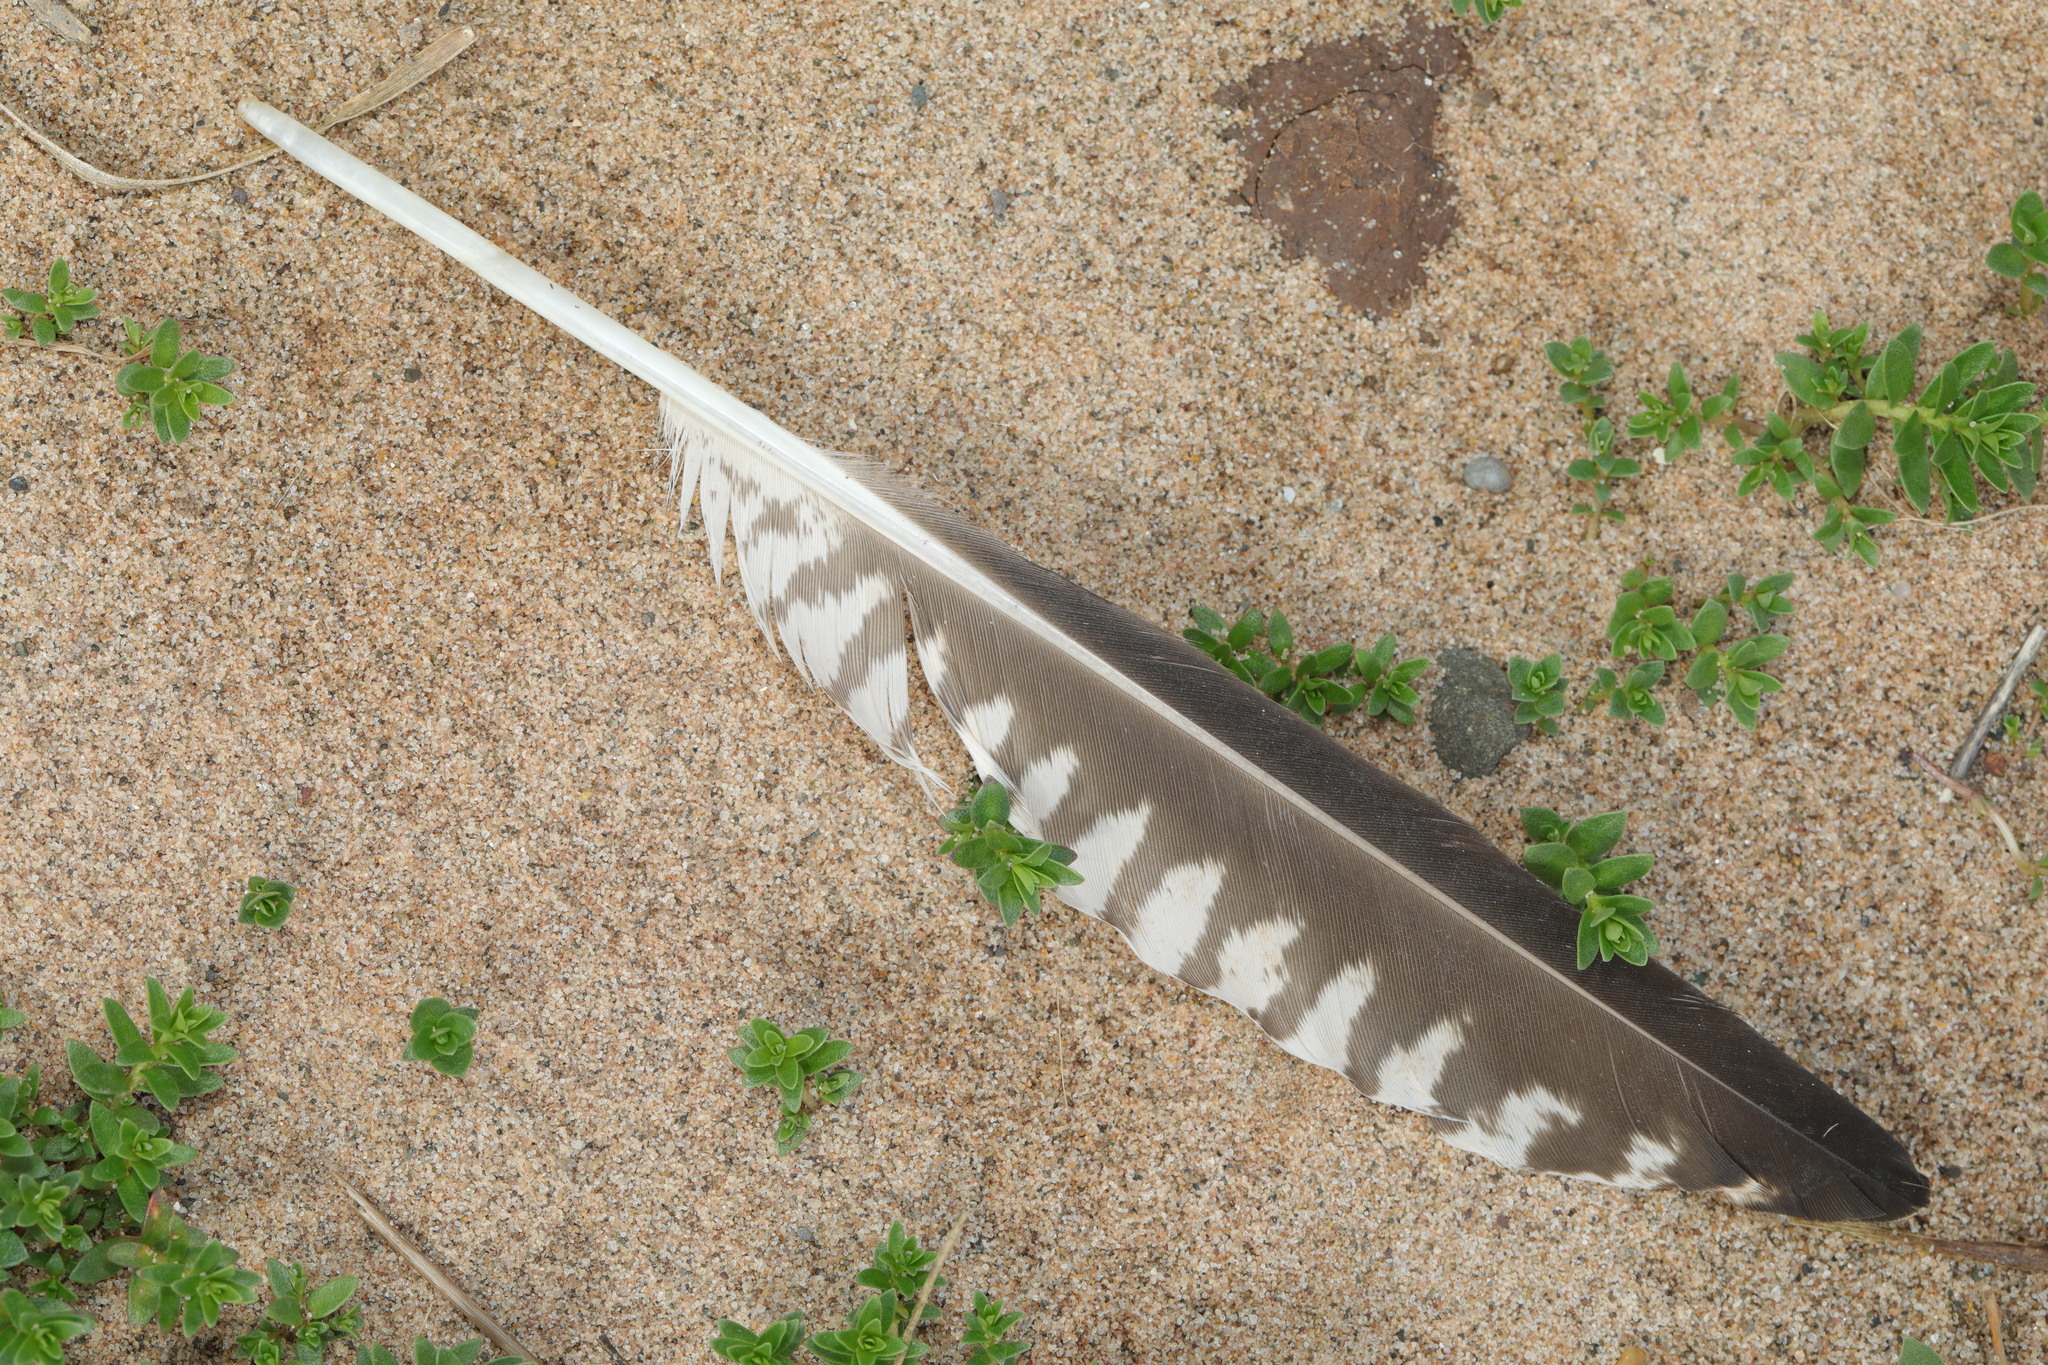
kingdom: Animalia
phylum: Chordata
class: Aves
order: Charadriiformes
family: Scolopacidae
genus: Numenius
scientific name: Numenius arquata
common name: Eurasian curlew
